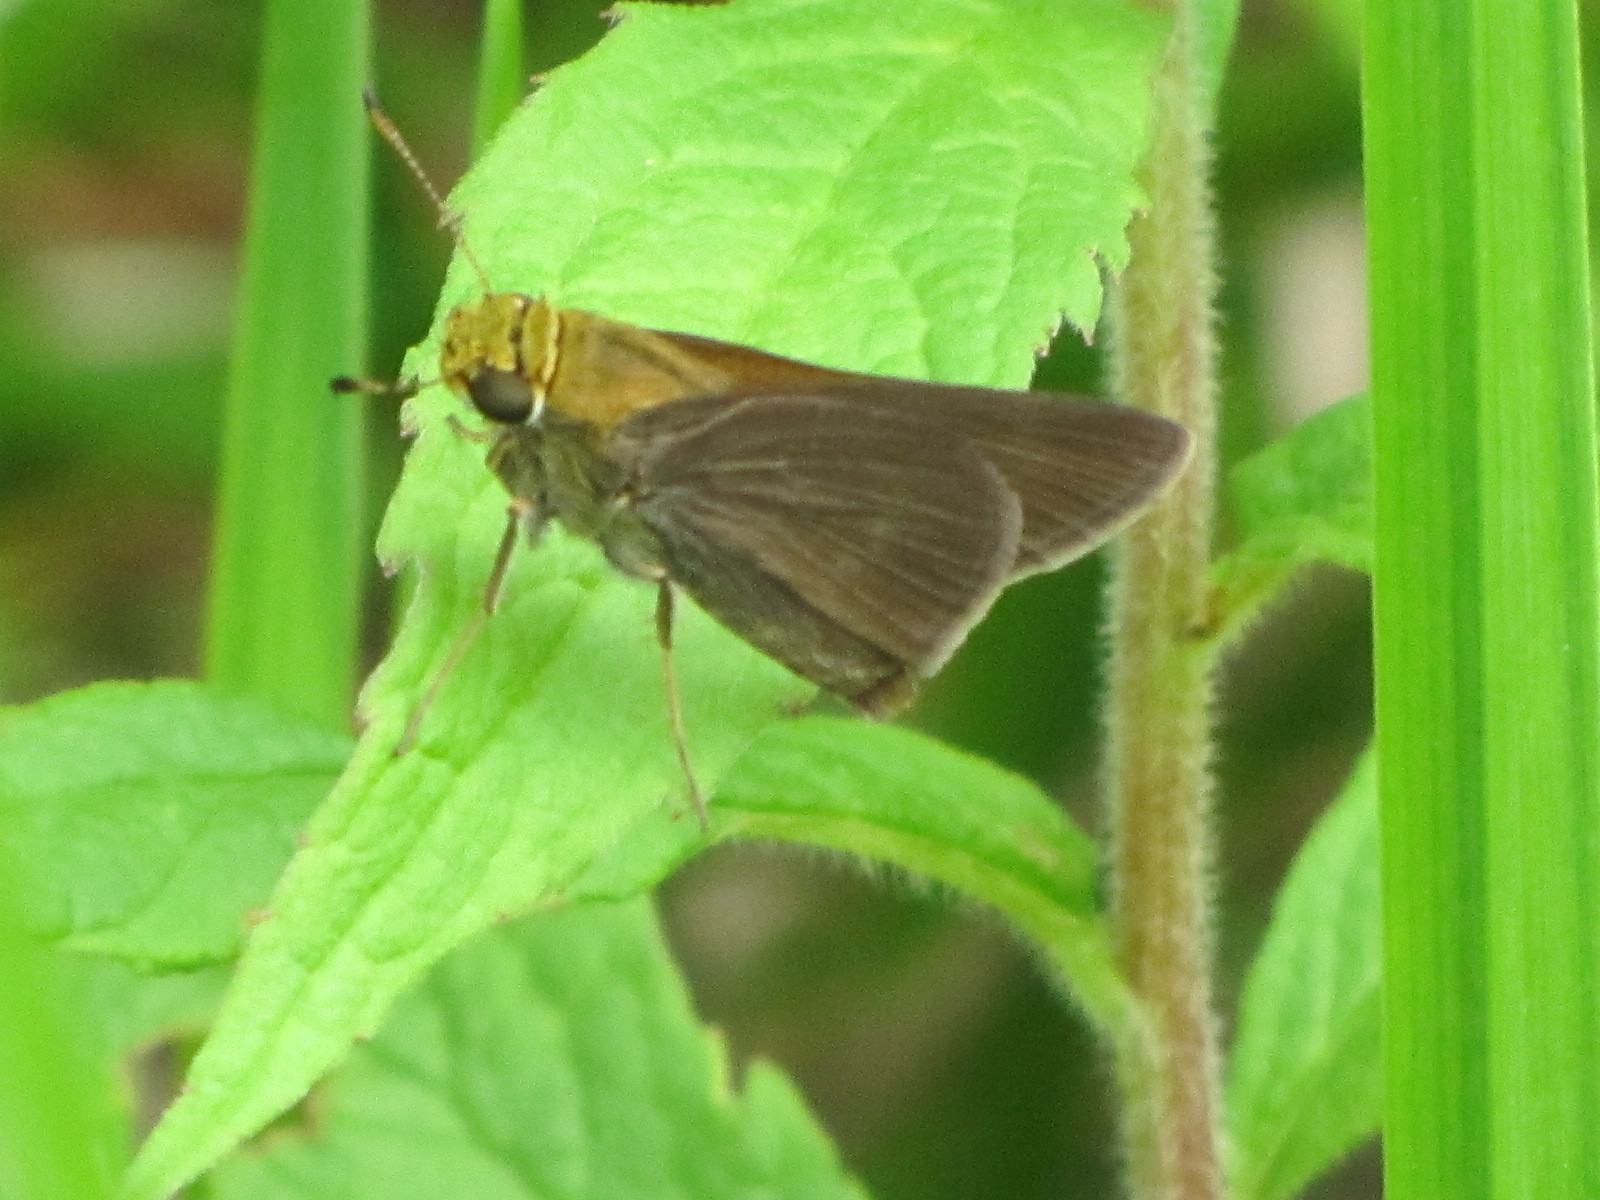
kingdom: Animalia
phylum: Arthropoda
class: Insecta
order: Lepidoptera
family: Hesperiidae
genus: Euphyes
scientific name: Euphyes vestris
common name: Dun skipper
